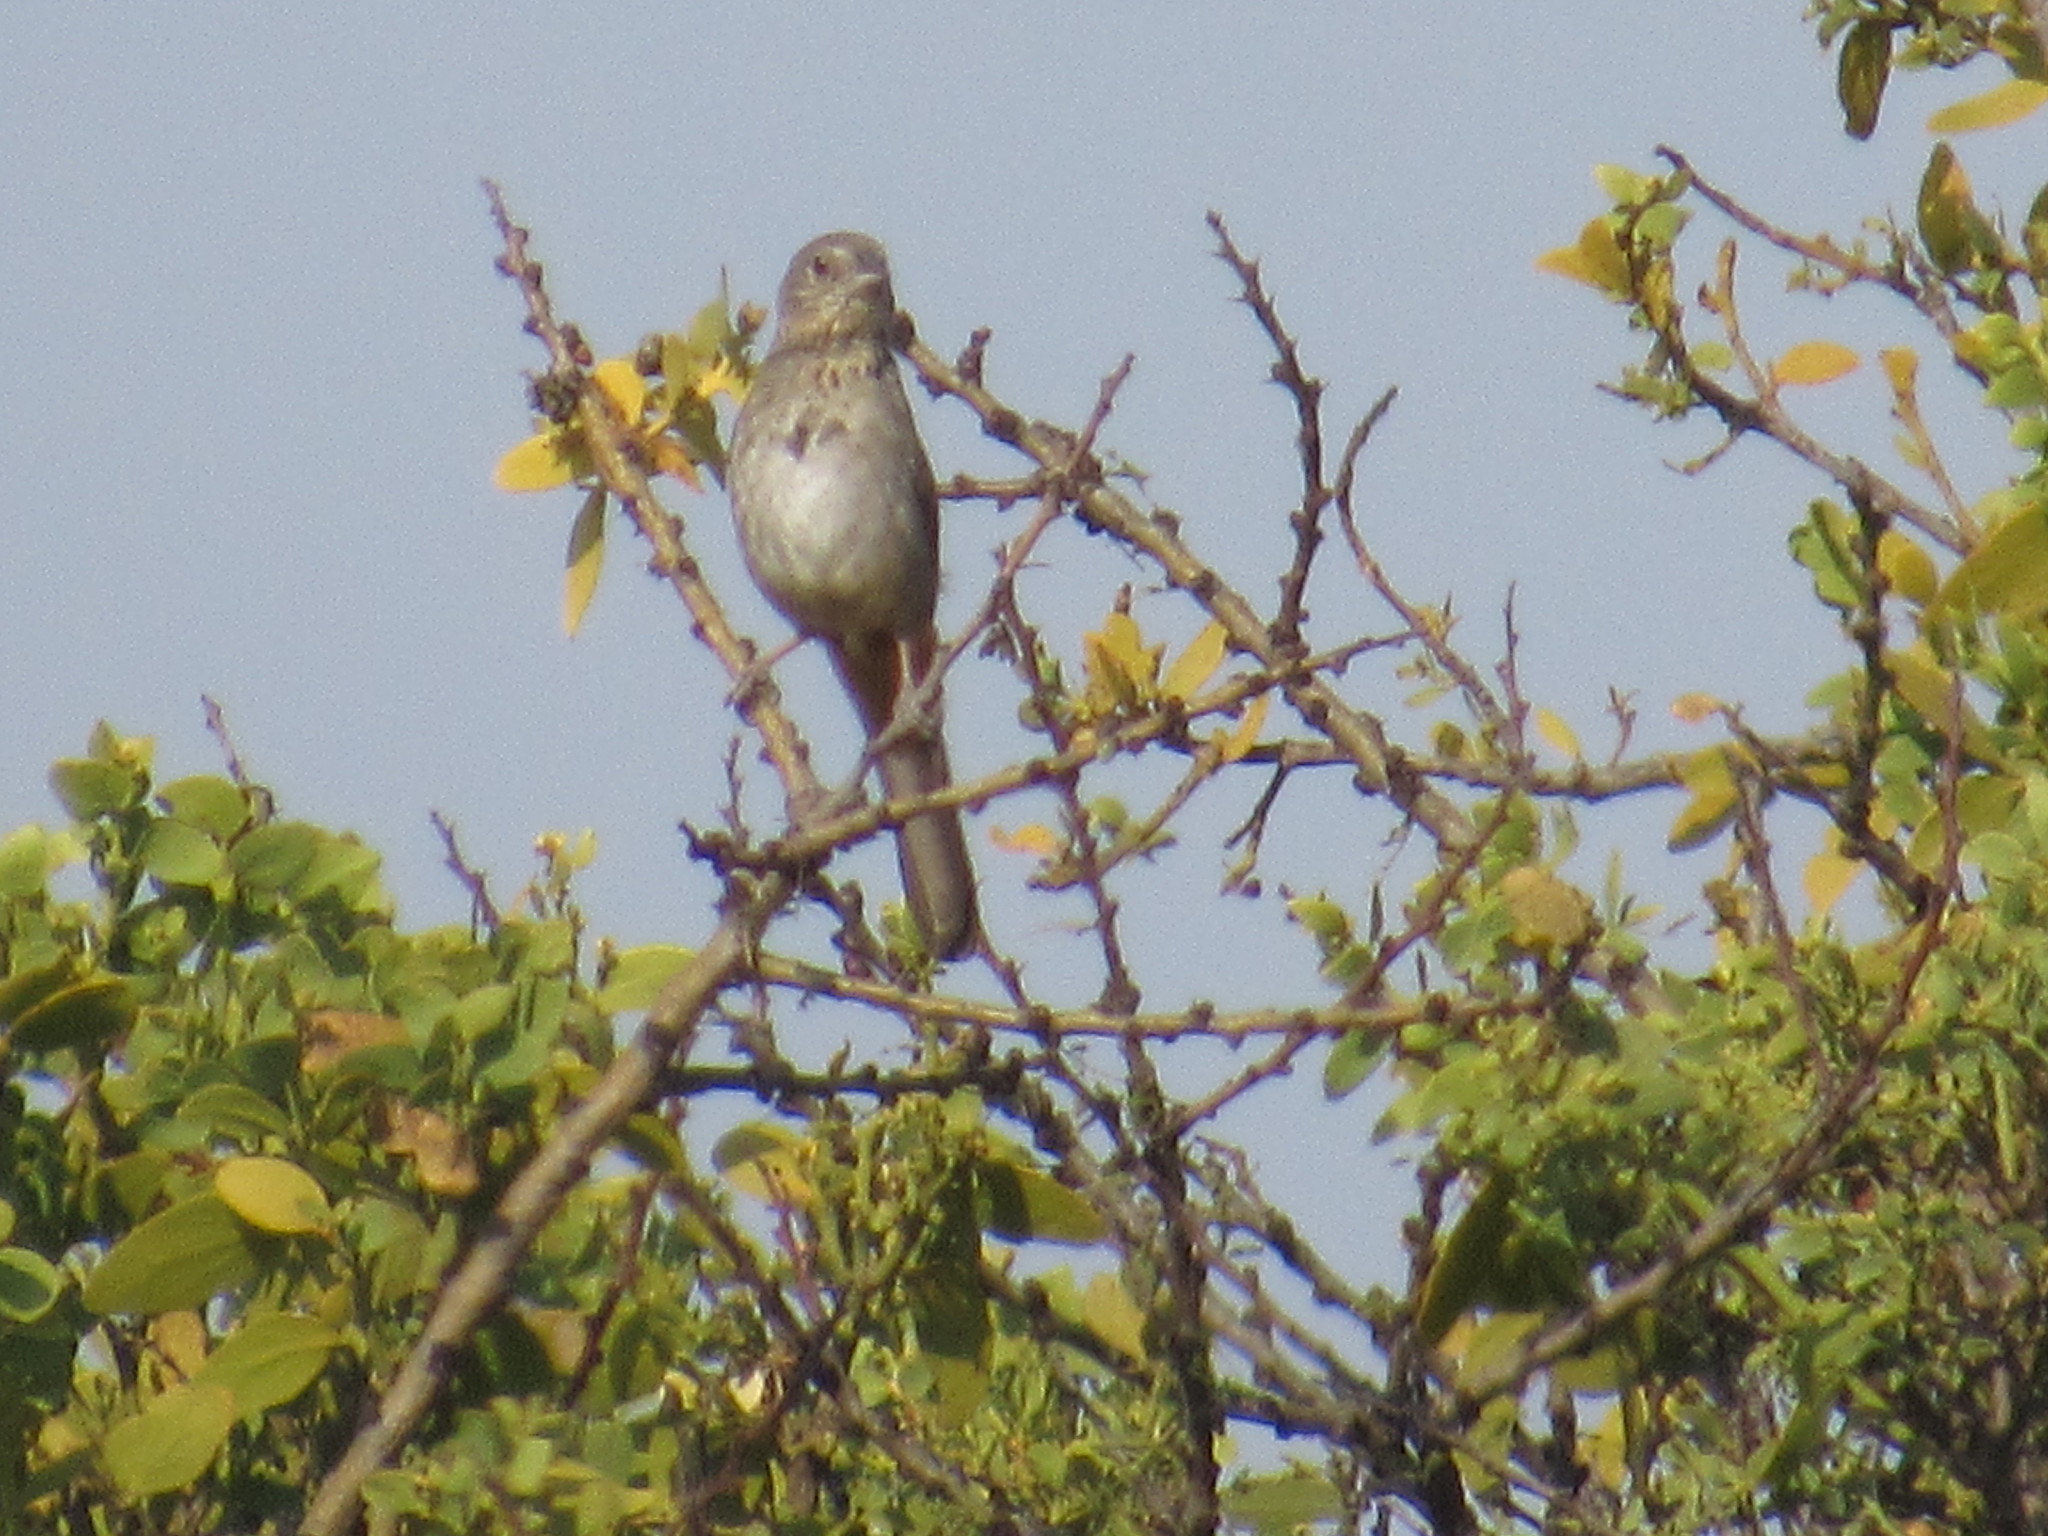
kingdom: Animalia
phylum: Chordata
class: Aves
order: Passeriformes
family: Passerellidae
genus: Melozone
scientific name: Melozone fusca
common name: Canyon towhee
